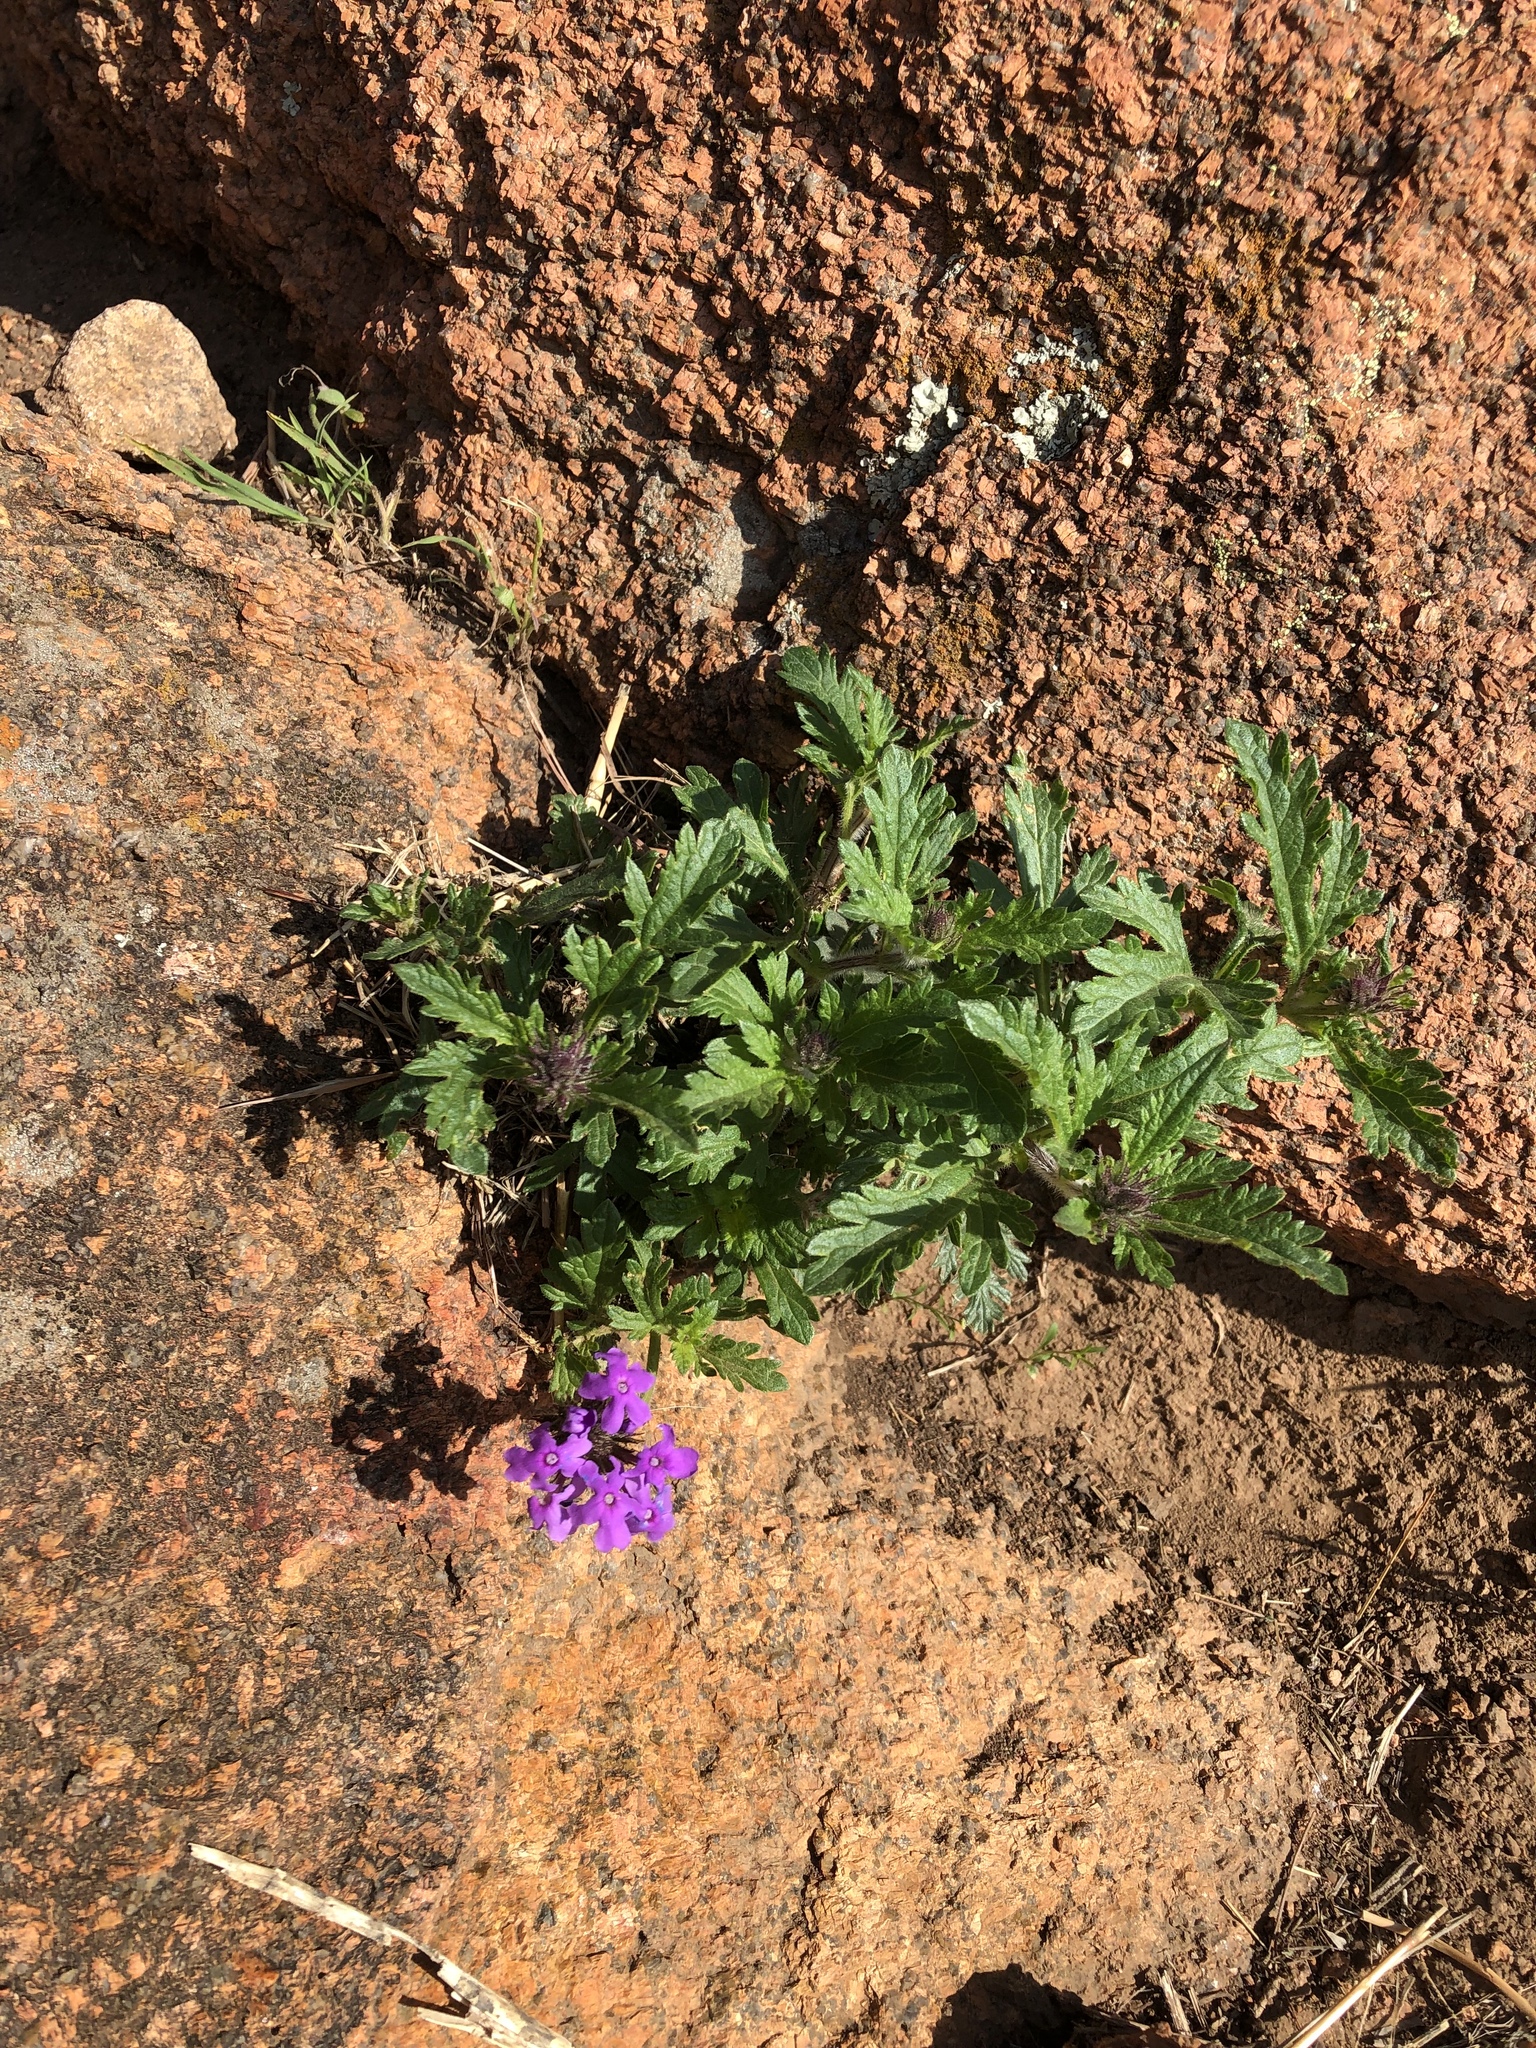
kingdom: Plantae
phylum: Tracheophyta
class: Magnoliopsida
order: Lamiales
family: Verbenaceae
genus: Verbena
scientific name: Verbena canadensis
